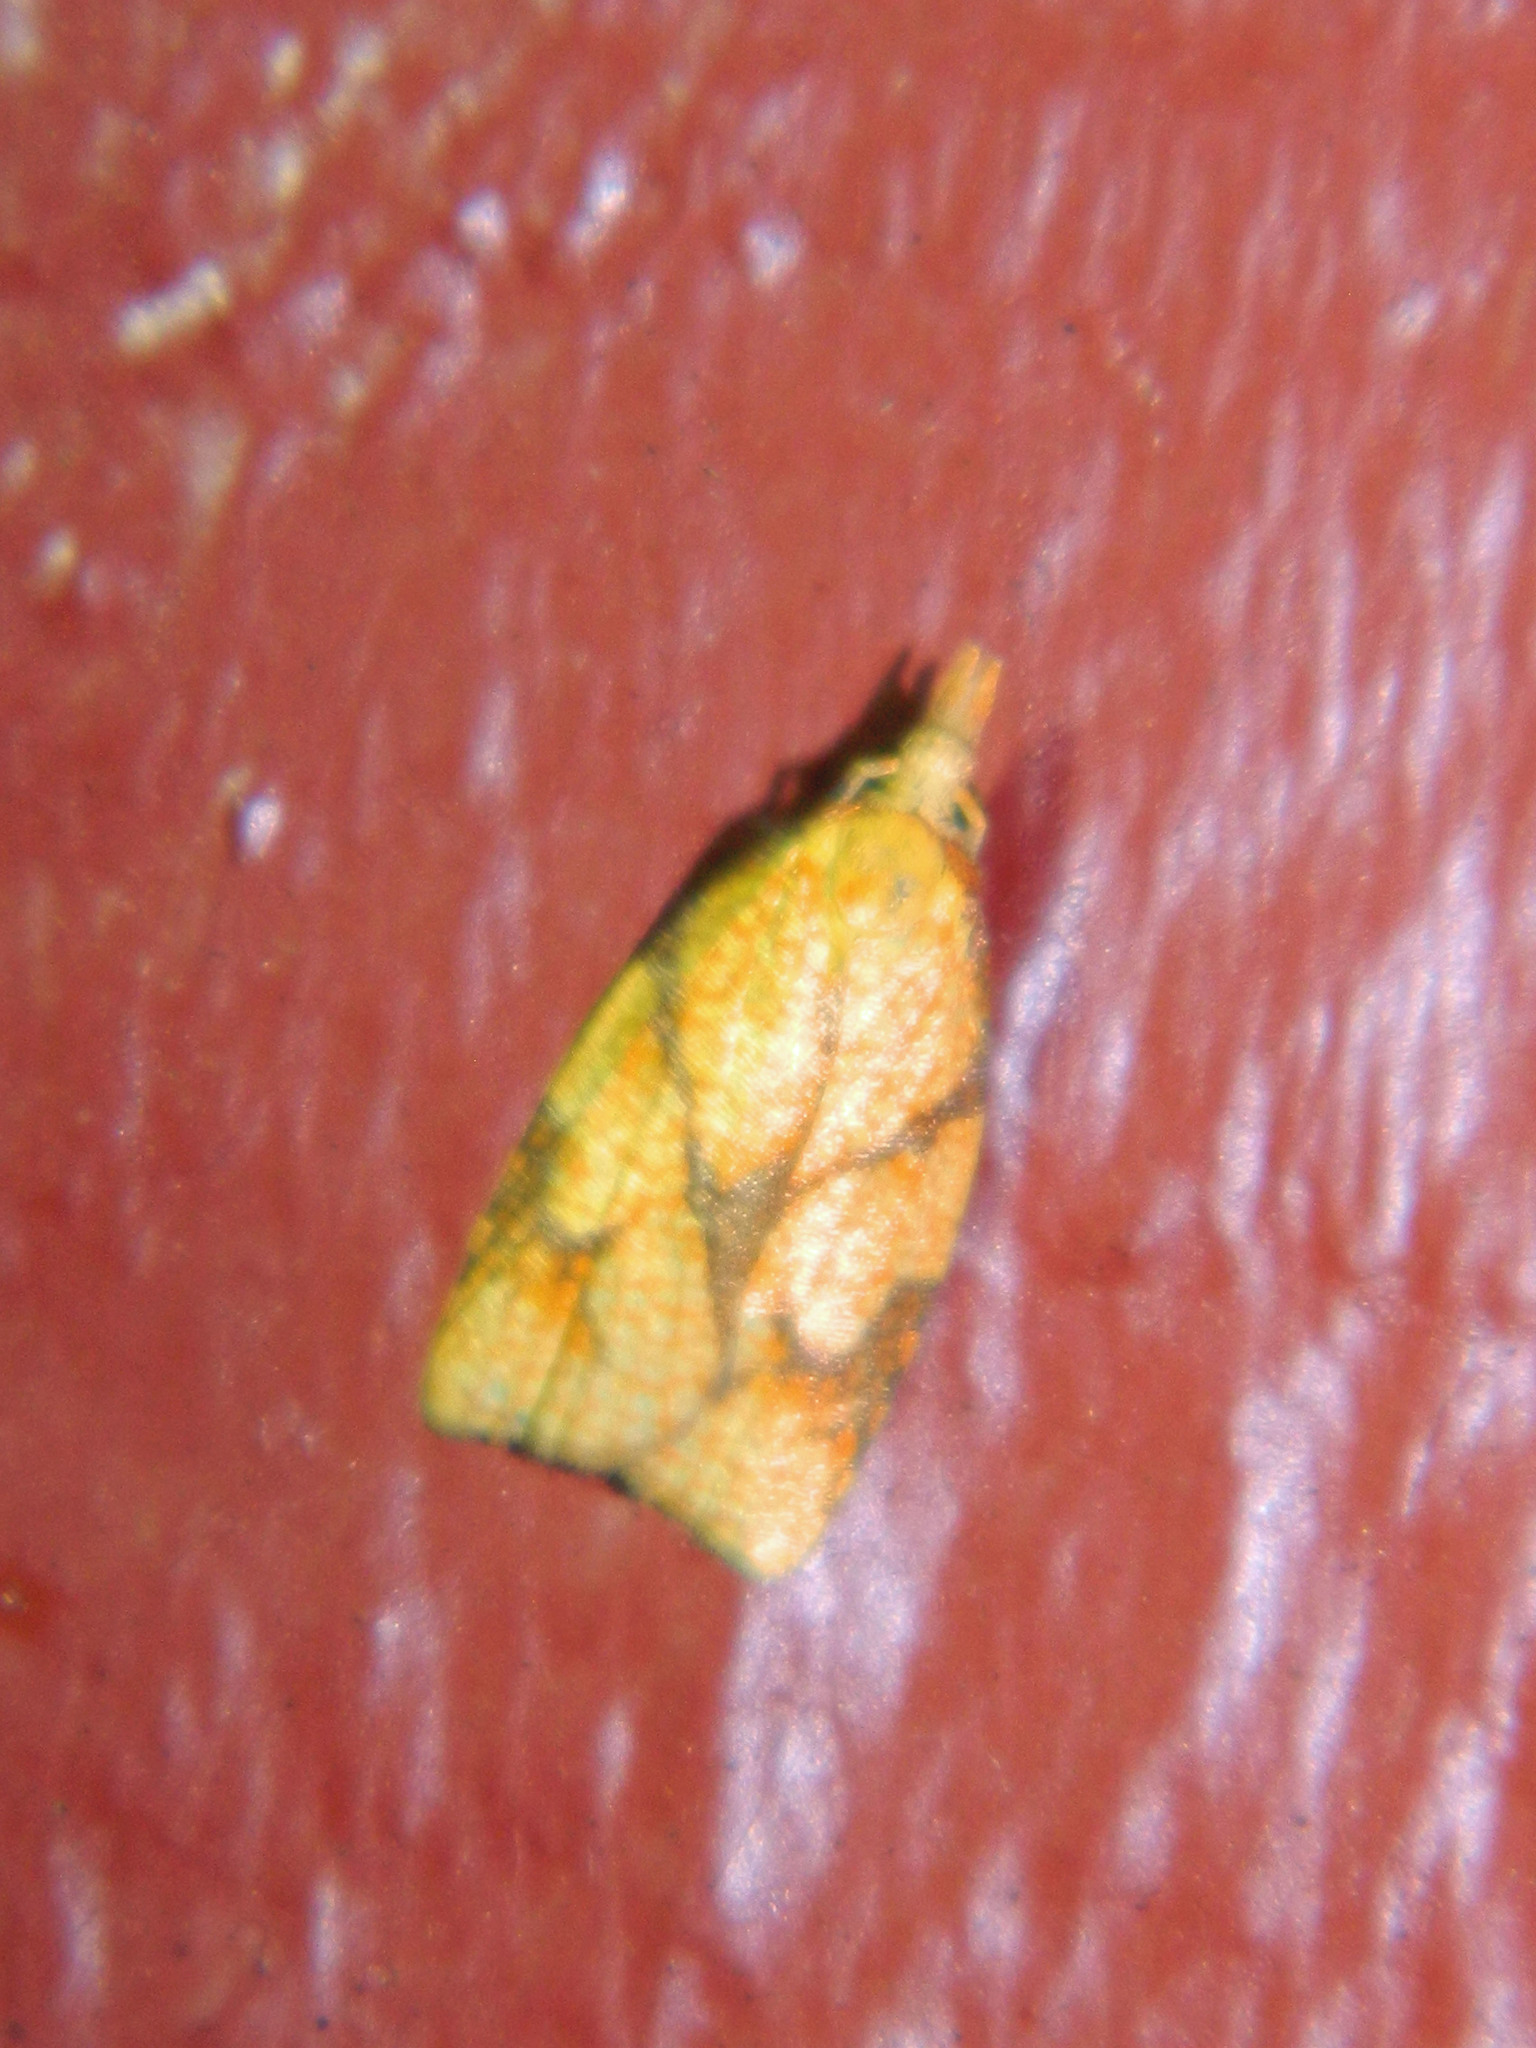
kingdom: Animalia
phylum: Arthropoda
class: Insecta
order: Lepidoptera
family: Tortricidae
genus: Cenopis
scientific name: Cenopis reticulatana
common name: Reticulated fruitworm moth
